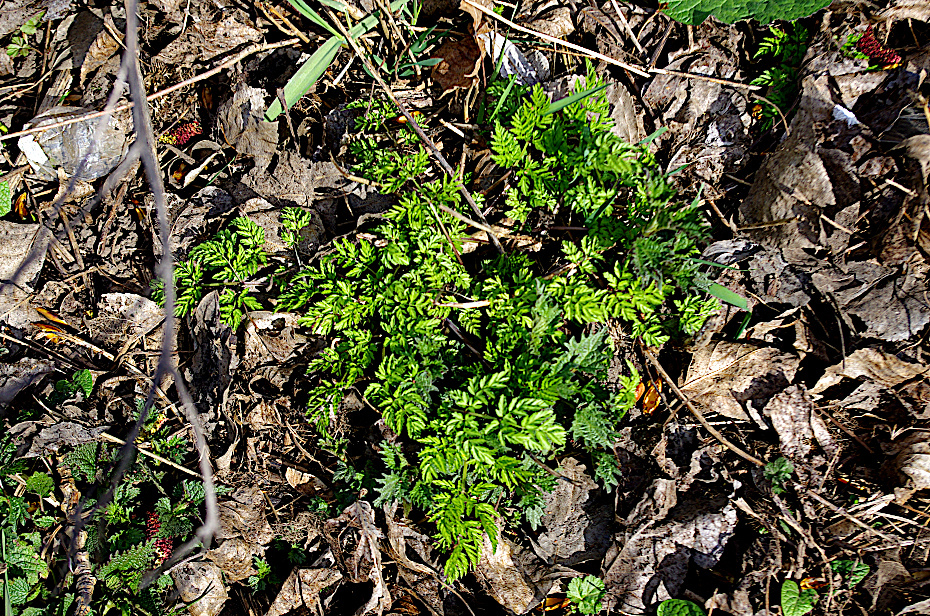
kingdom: Plantae
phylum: Tracheophyta
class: Magnoliopsida
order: Apiales
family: Apiaceae
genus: Anthriscus
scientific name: Anthriscus sylvestris
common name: Cow parsley
